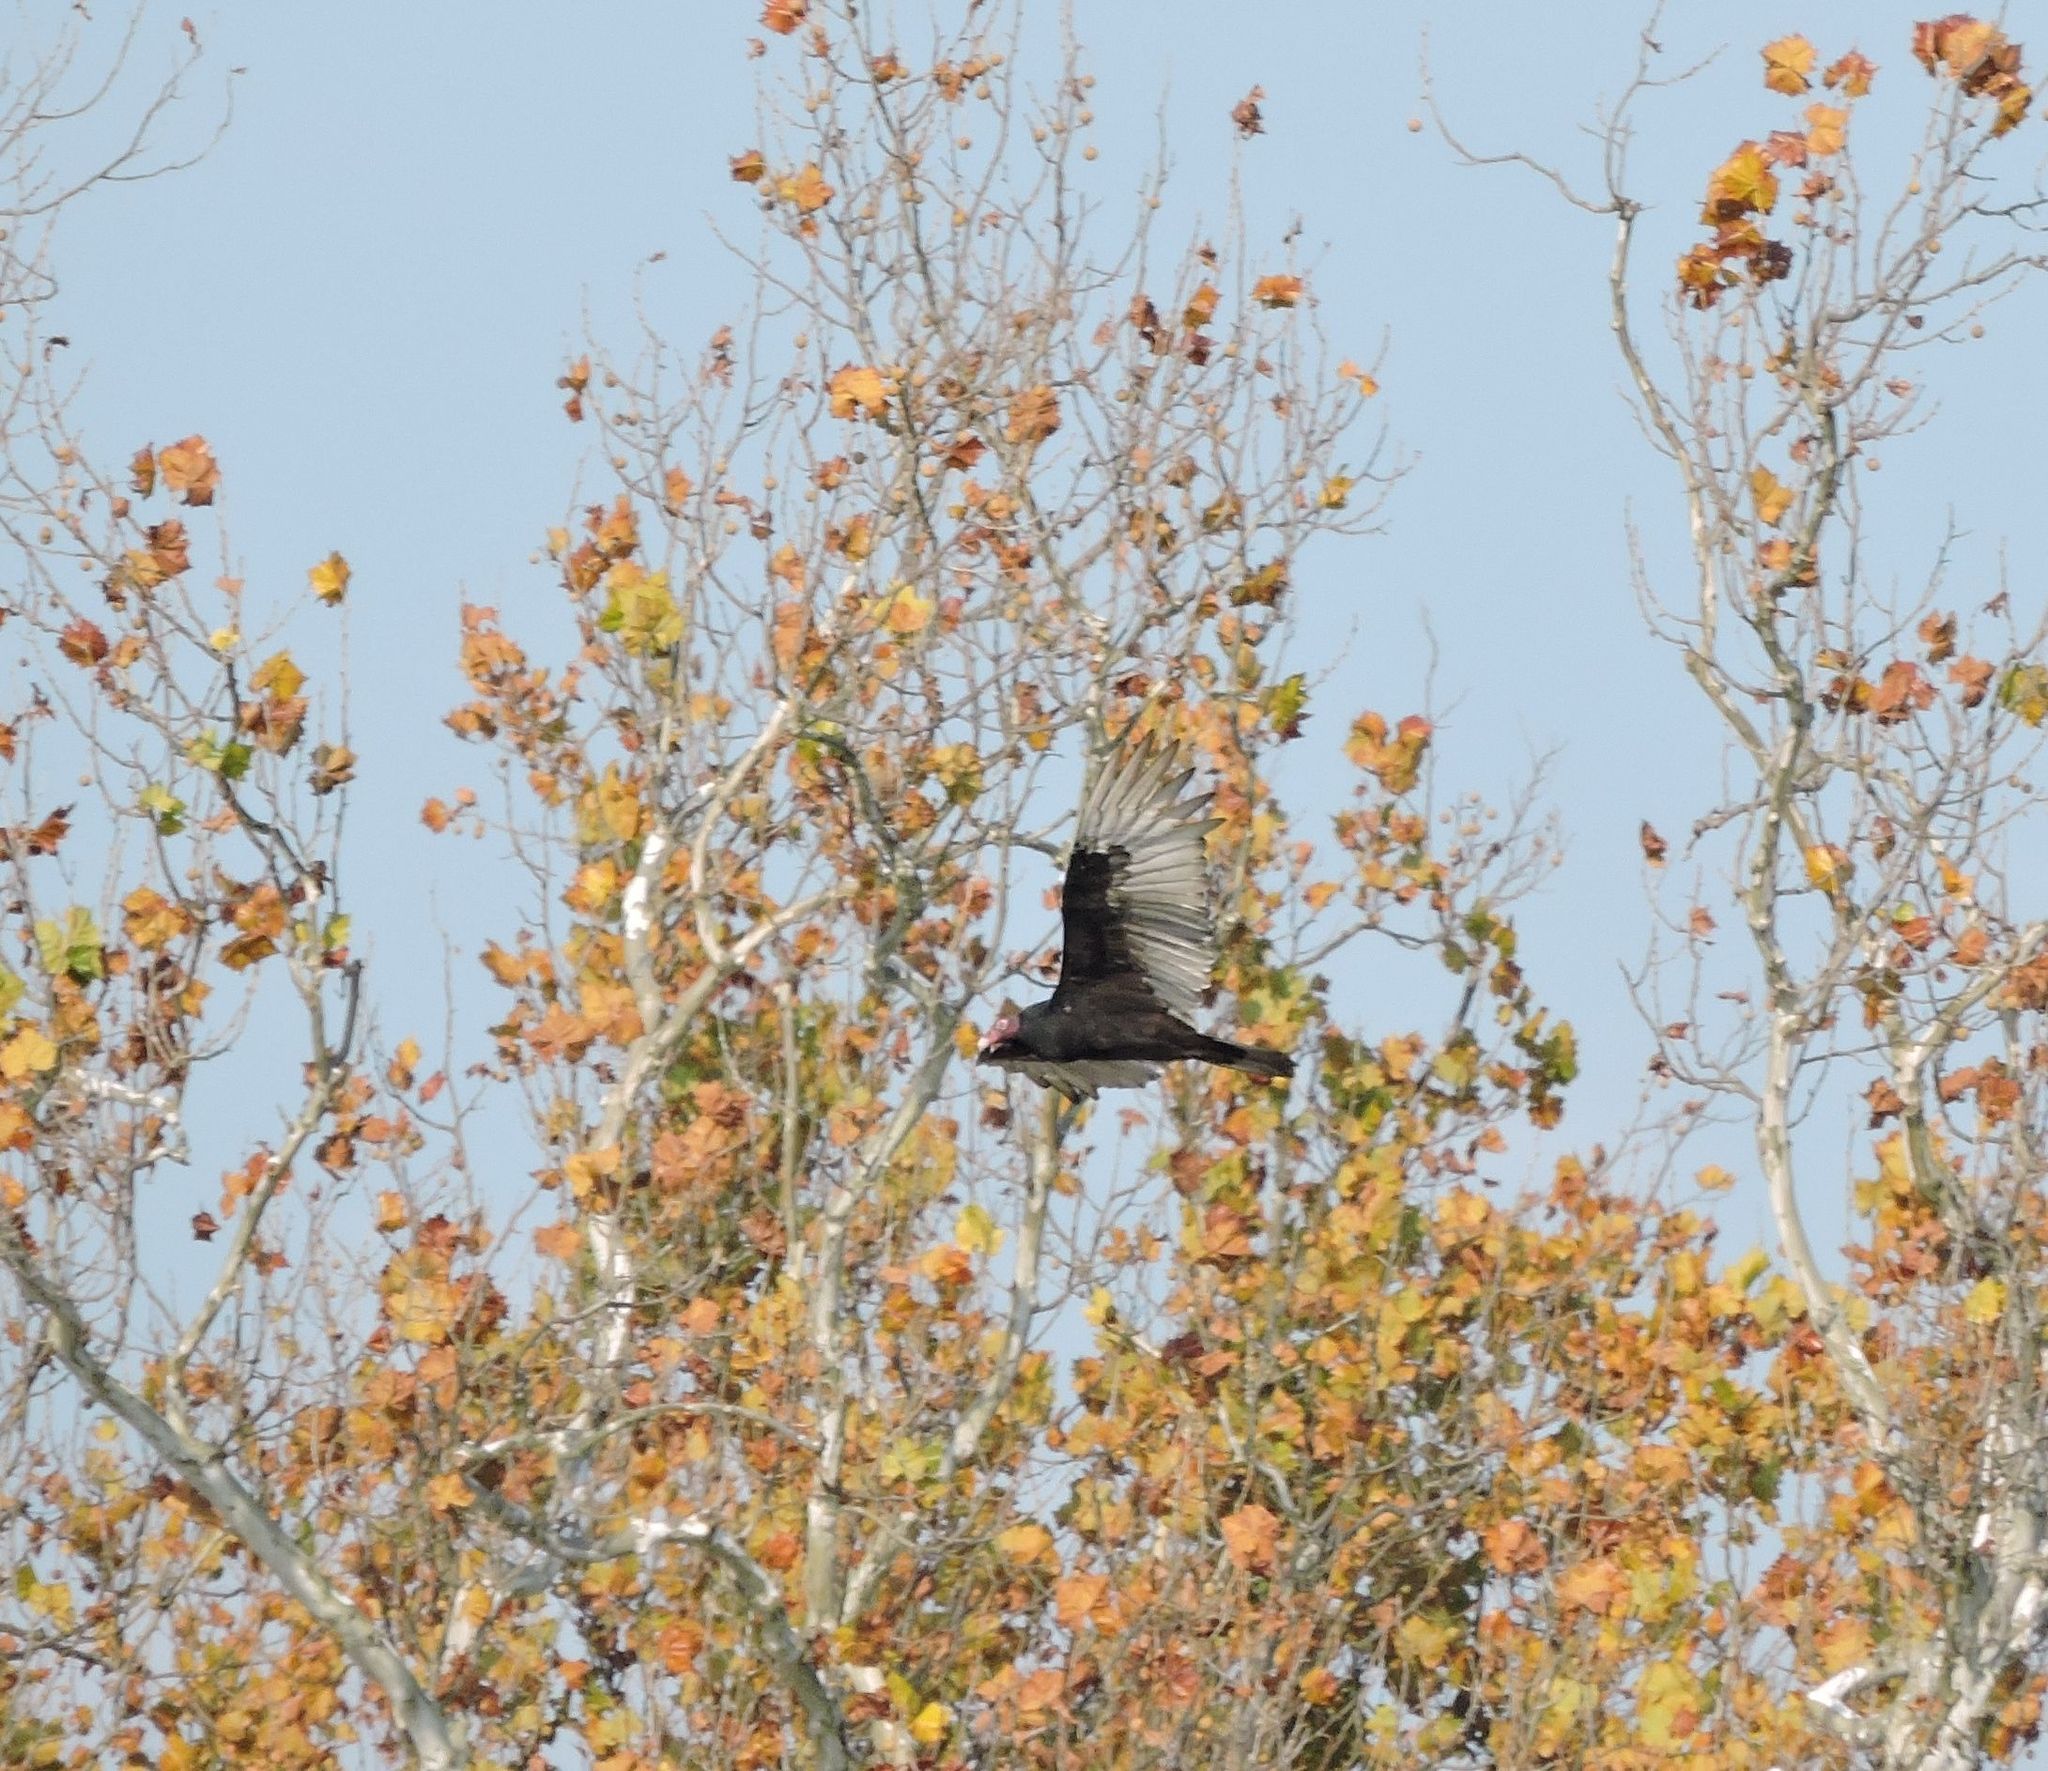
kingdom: Animalia
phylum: Chordata
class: Aves
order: Accipitriformes
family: Cathartidae
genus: Cathartes
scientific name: Cathartes aura
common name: Turkey vulture
